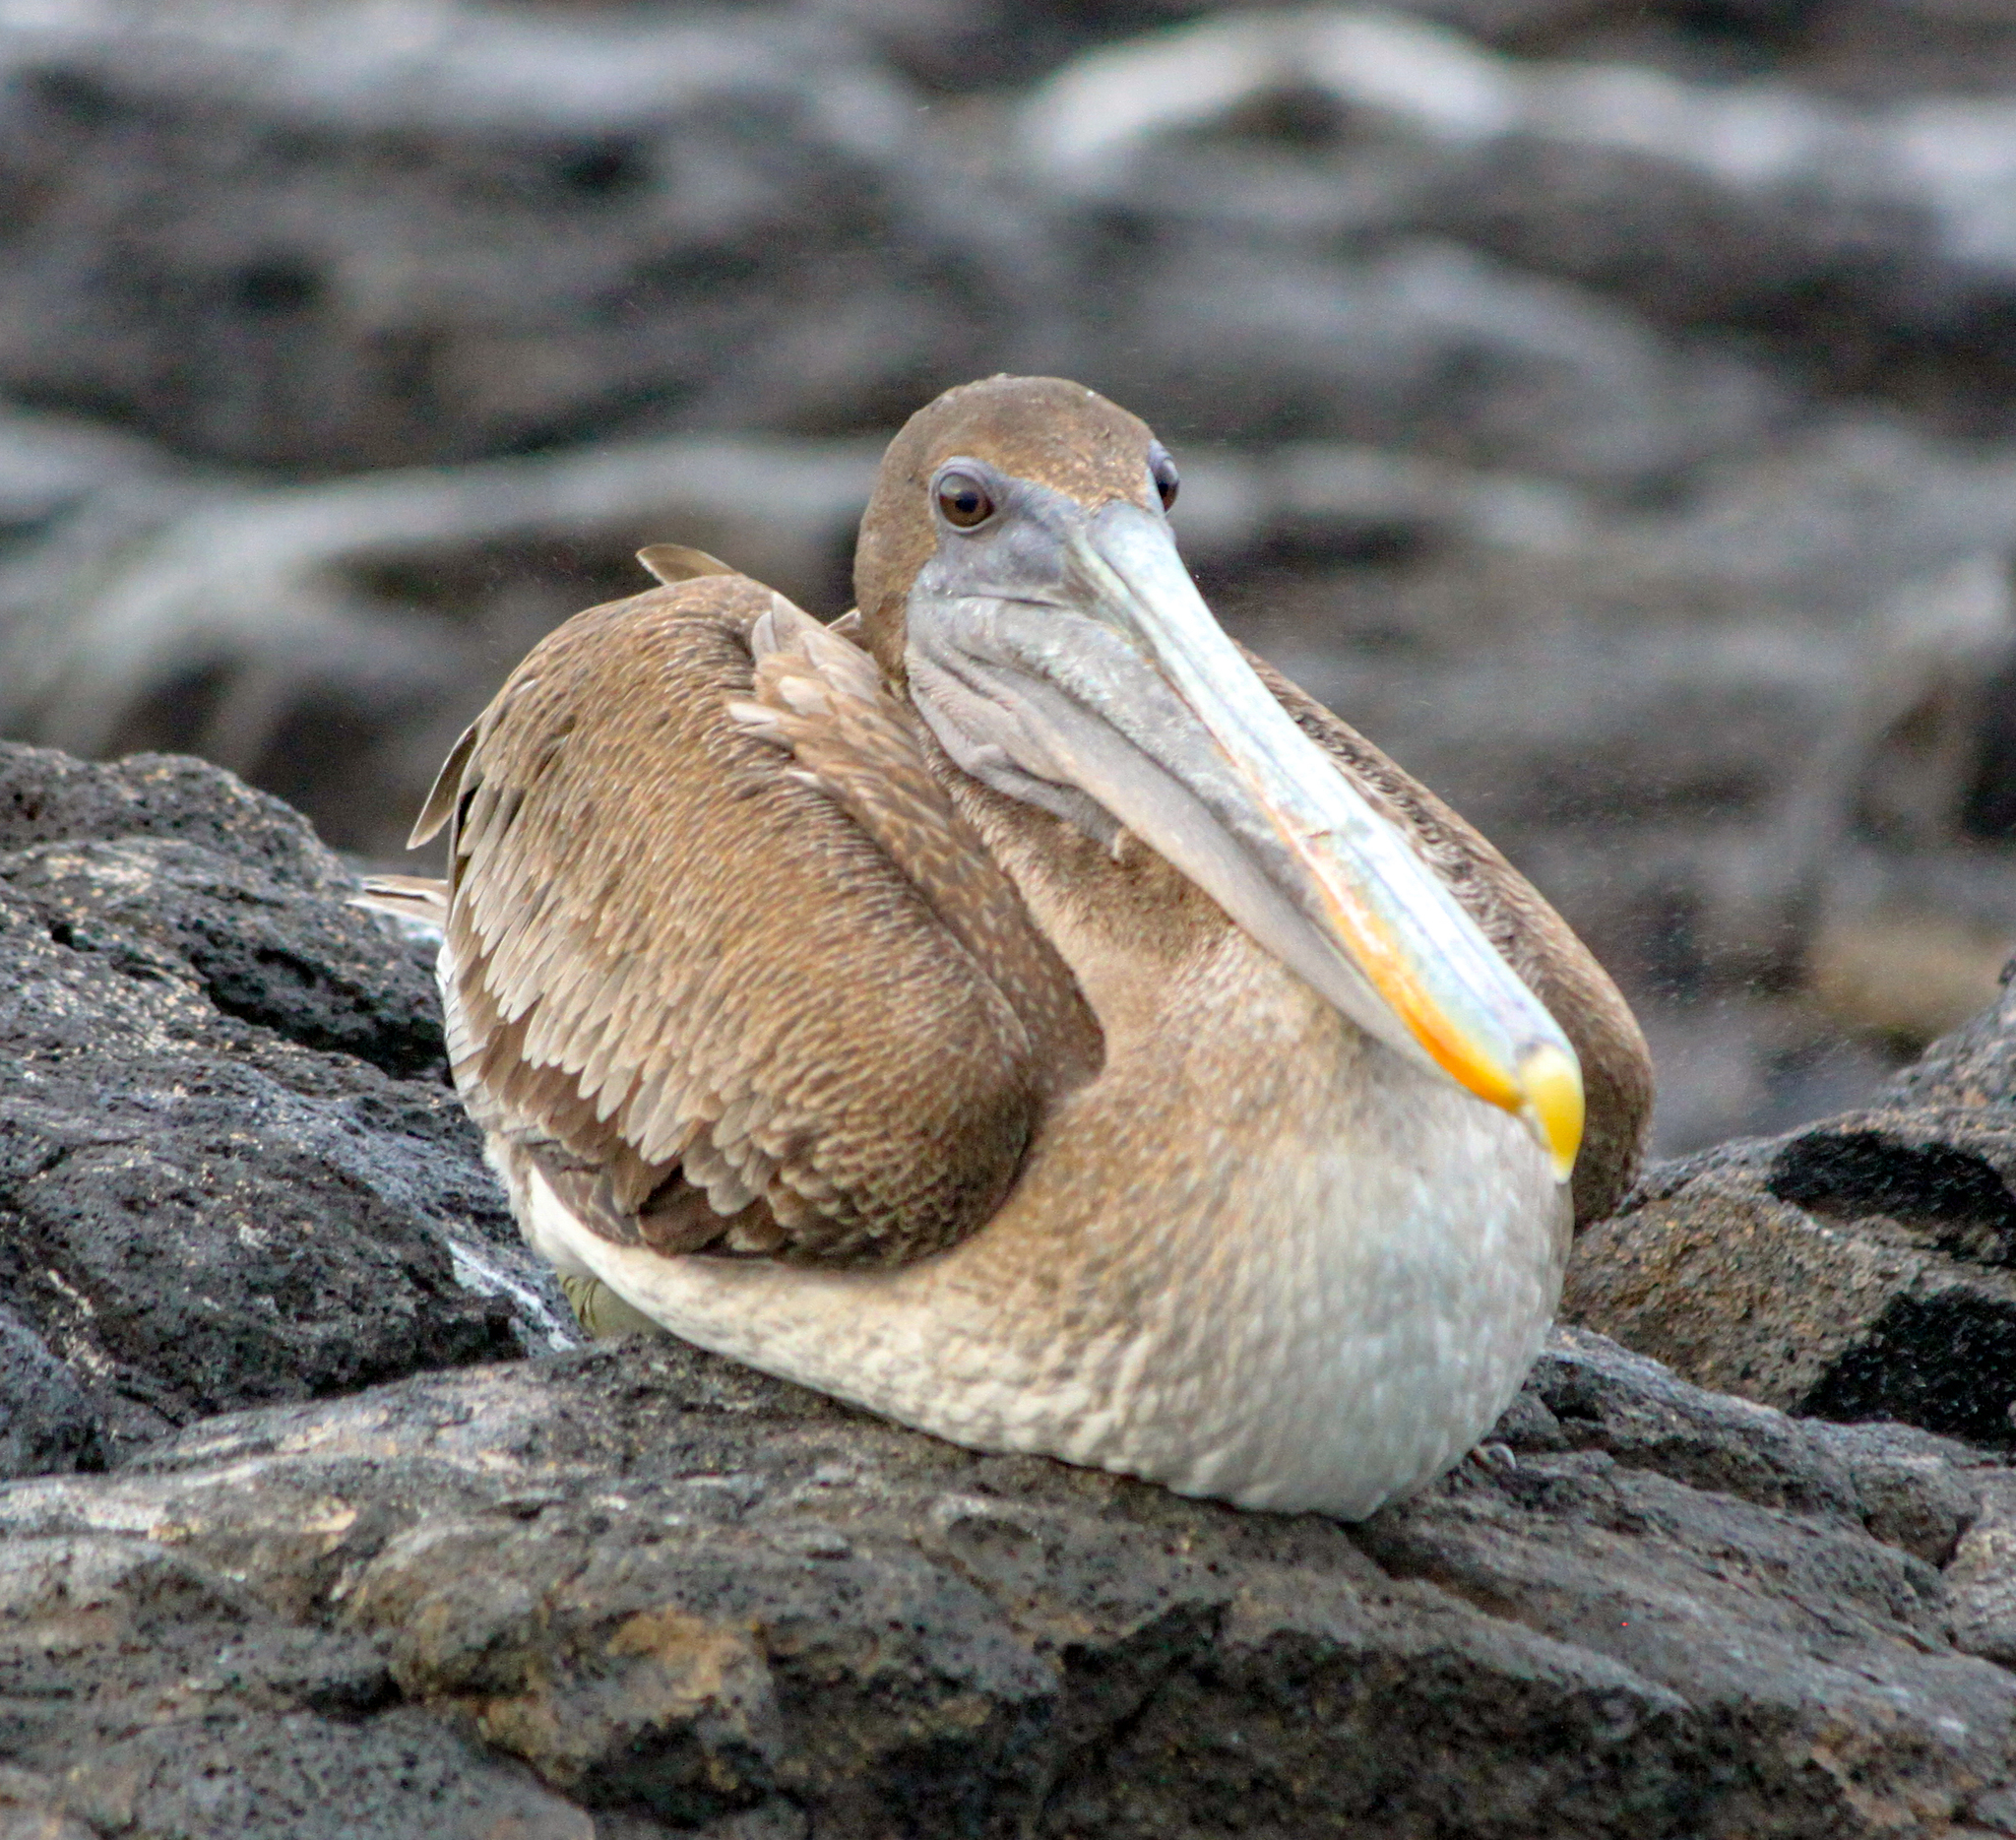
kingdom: Animalia
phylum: Chordata
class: Aves
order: Pelecaniformes
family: Pelecanidae
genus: Pelecanus
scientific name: Pelecanus occidentalis
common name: Brown pelican
